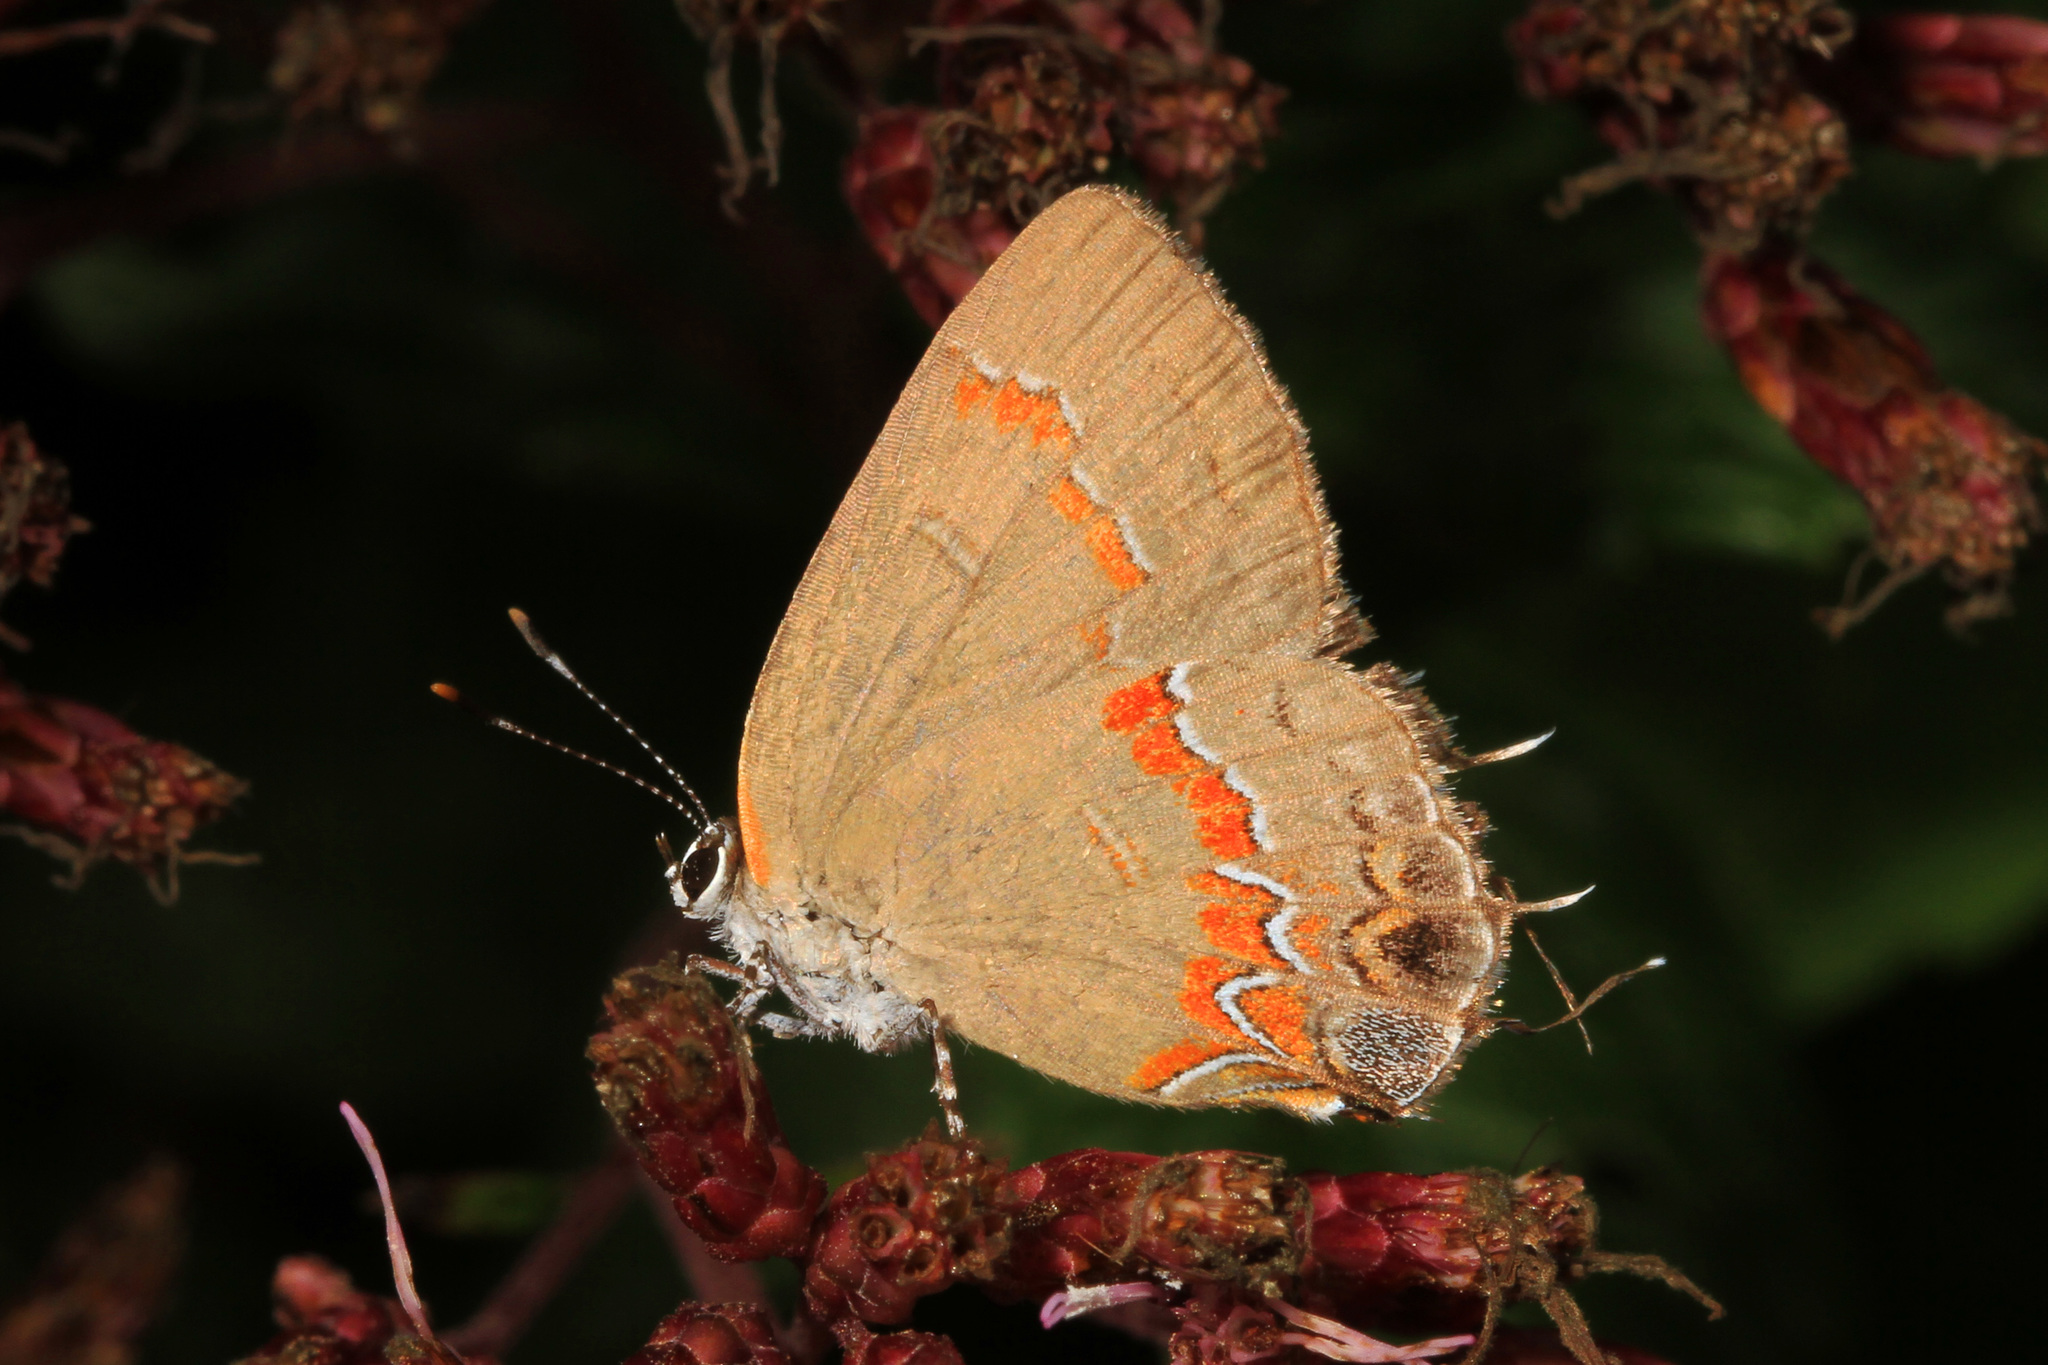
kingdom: Animalia
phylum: Arthropoda
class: Insecta
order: Lepidoptera
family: Lycaenidae
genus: Calycopis
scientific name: Calycopis cecrops
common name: Red-banded hairstreak
